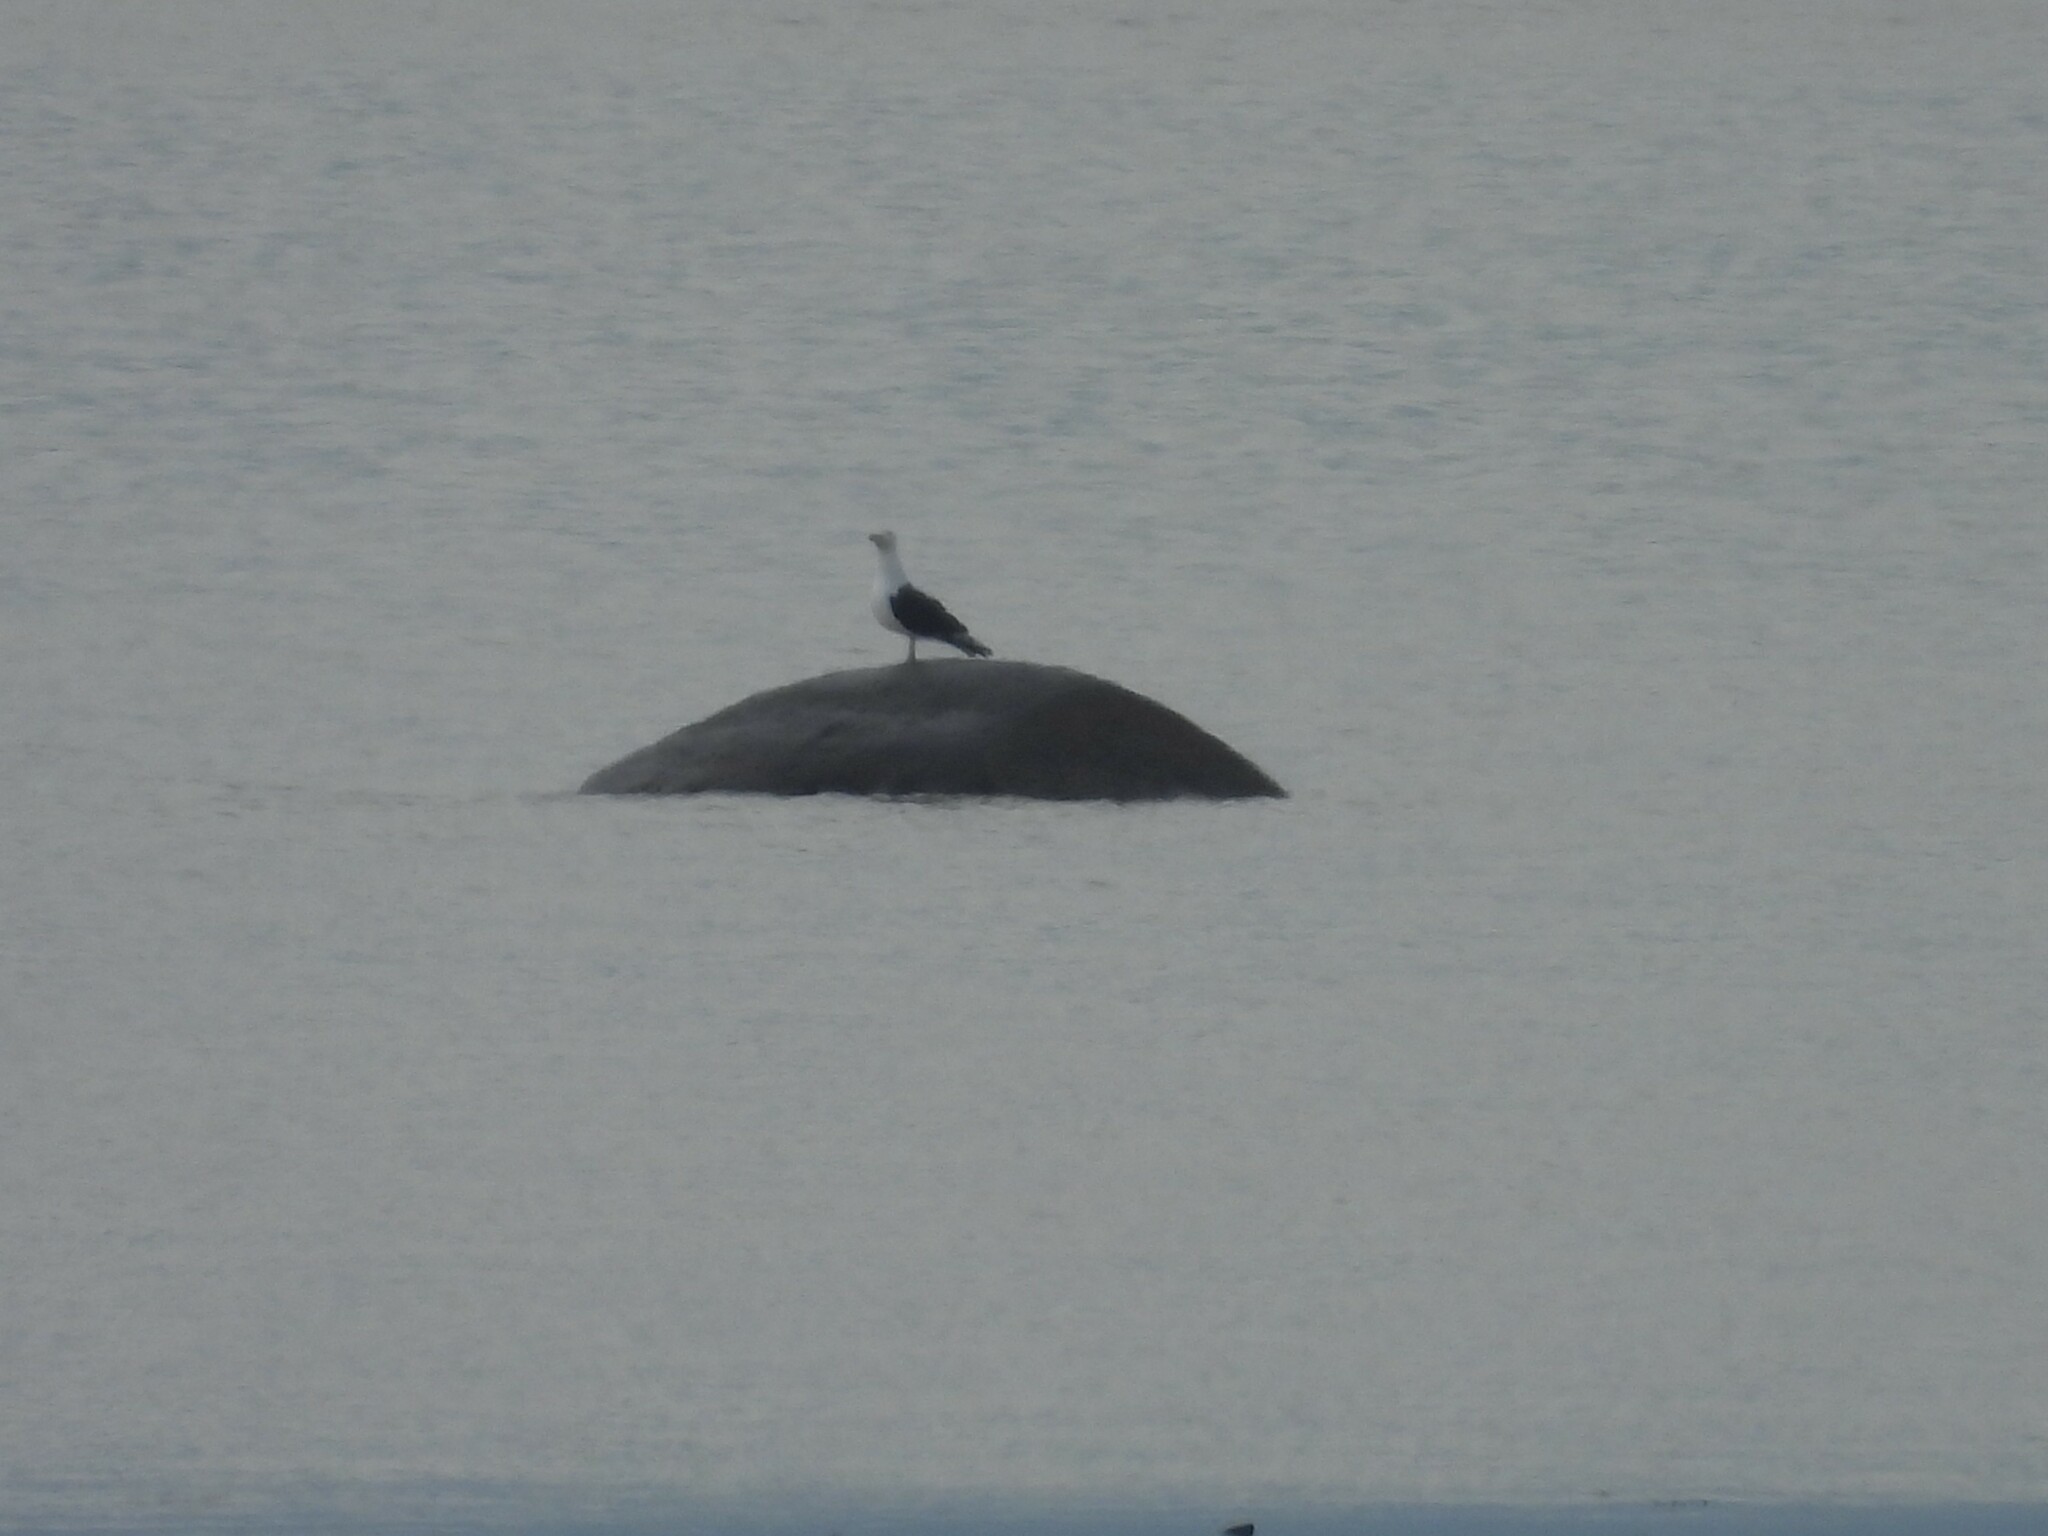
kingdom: Animalia
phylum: Chordata
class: Aves
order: Charadriiformes
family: Laridae
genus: Larus
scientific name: Larus marinus
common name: Great black-backed gull
